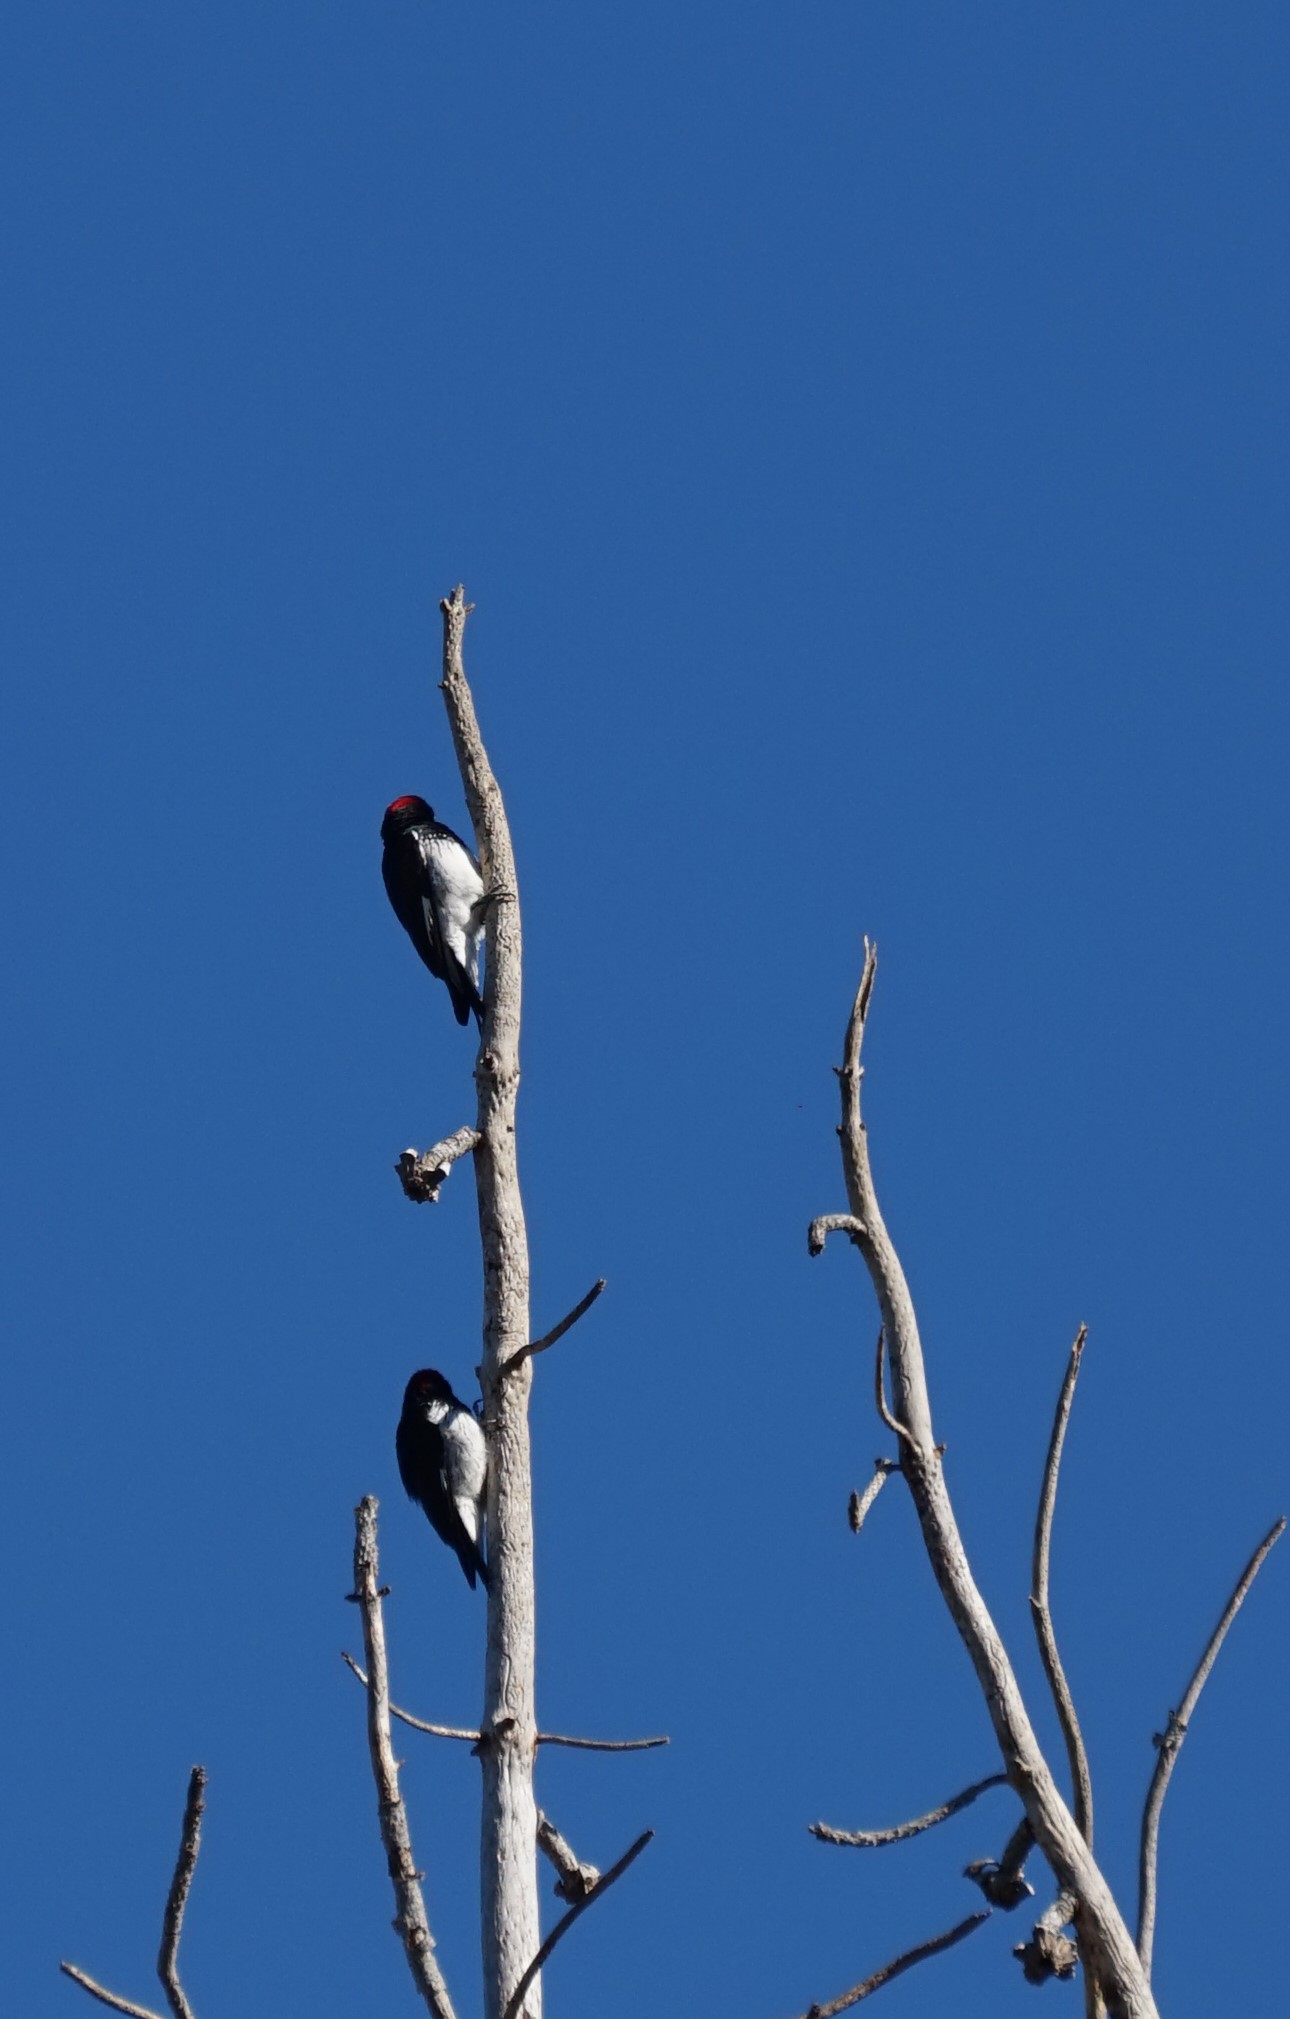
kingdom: Animalia
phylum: Chordata
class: Aves
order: Piciformes
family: Picidae
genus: Melanerpes
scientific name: Melanerpes formicivorus
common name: Acorn woodpecker
